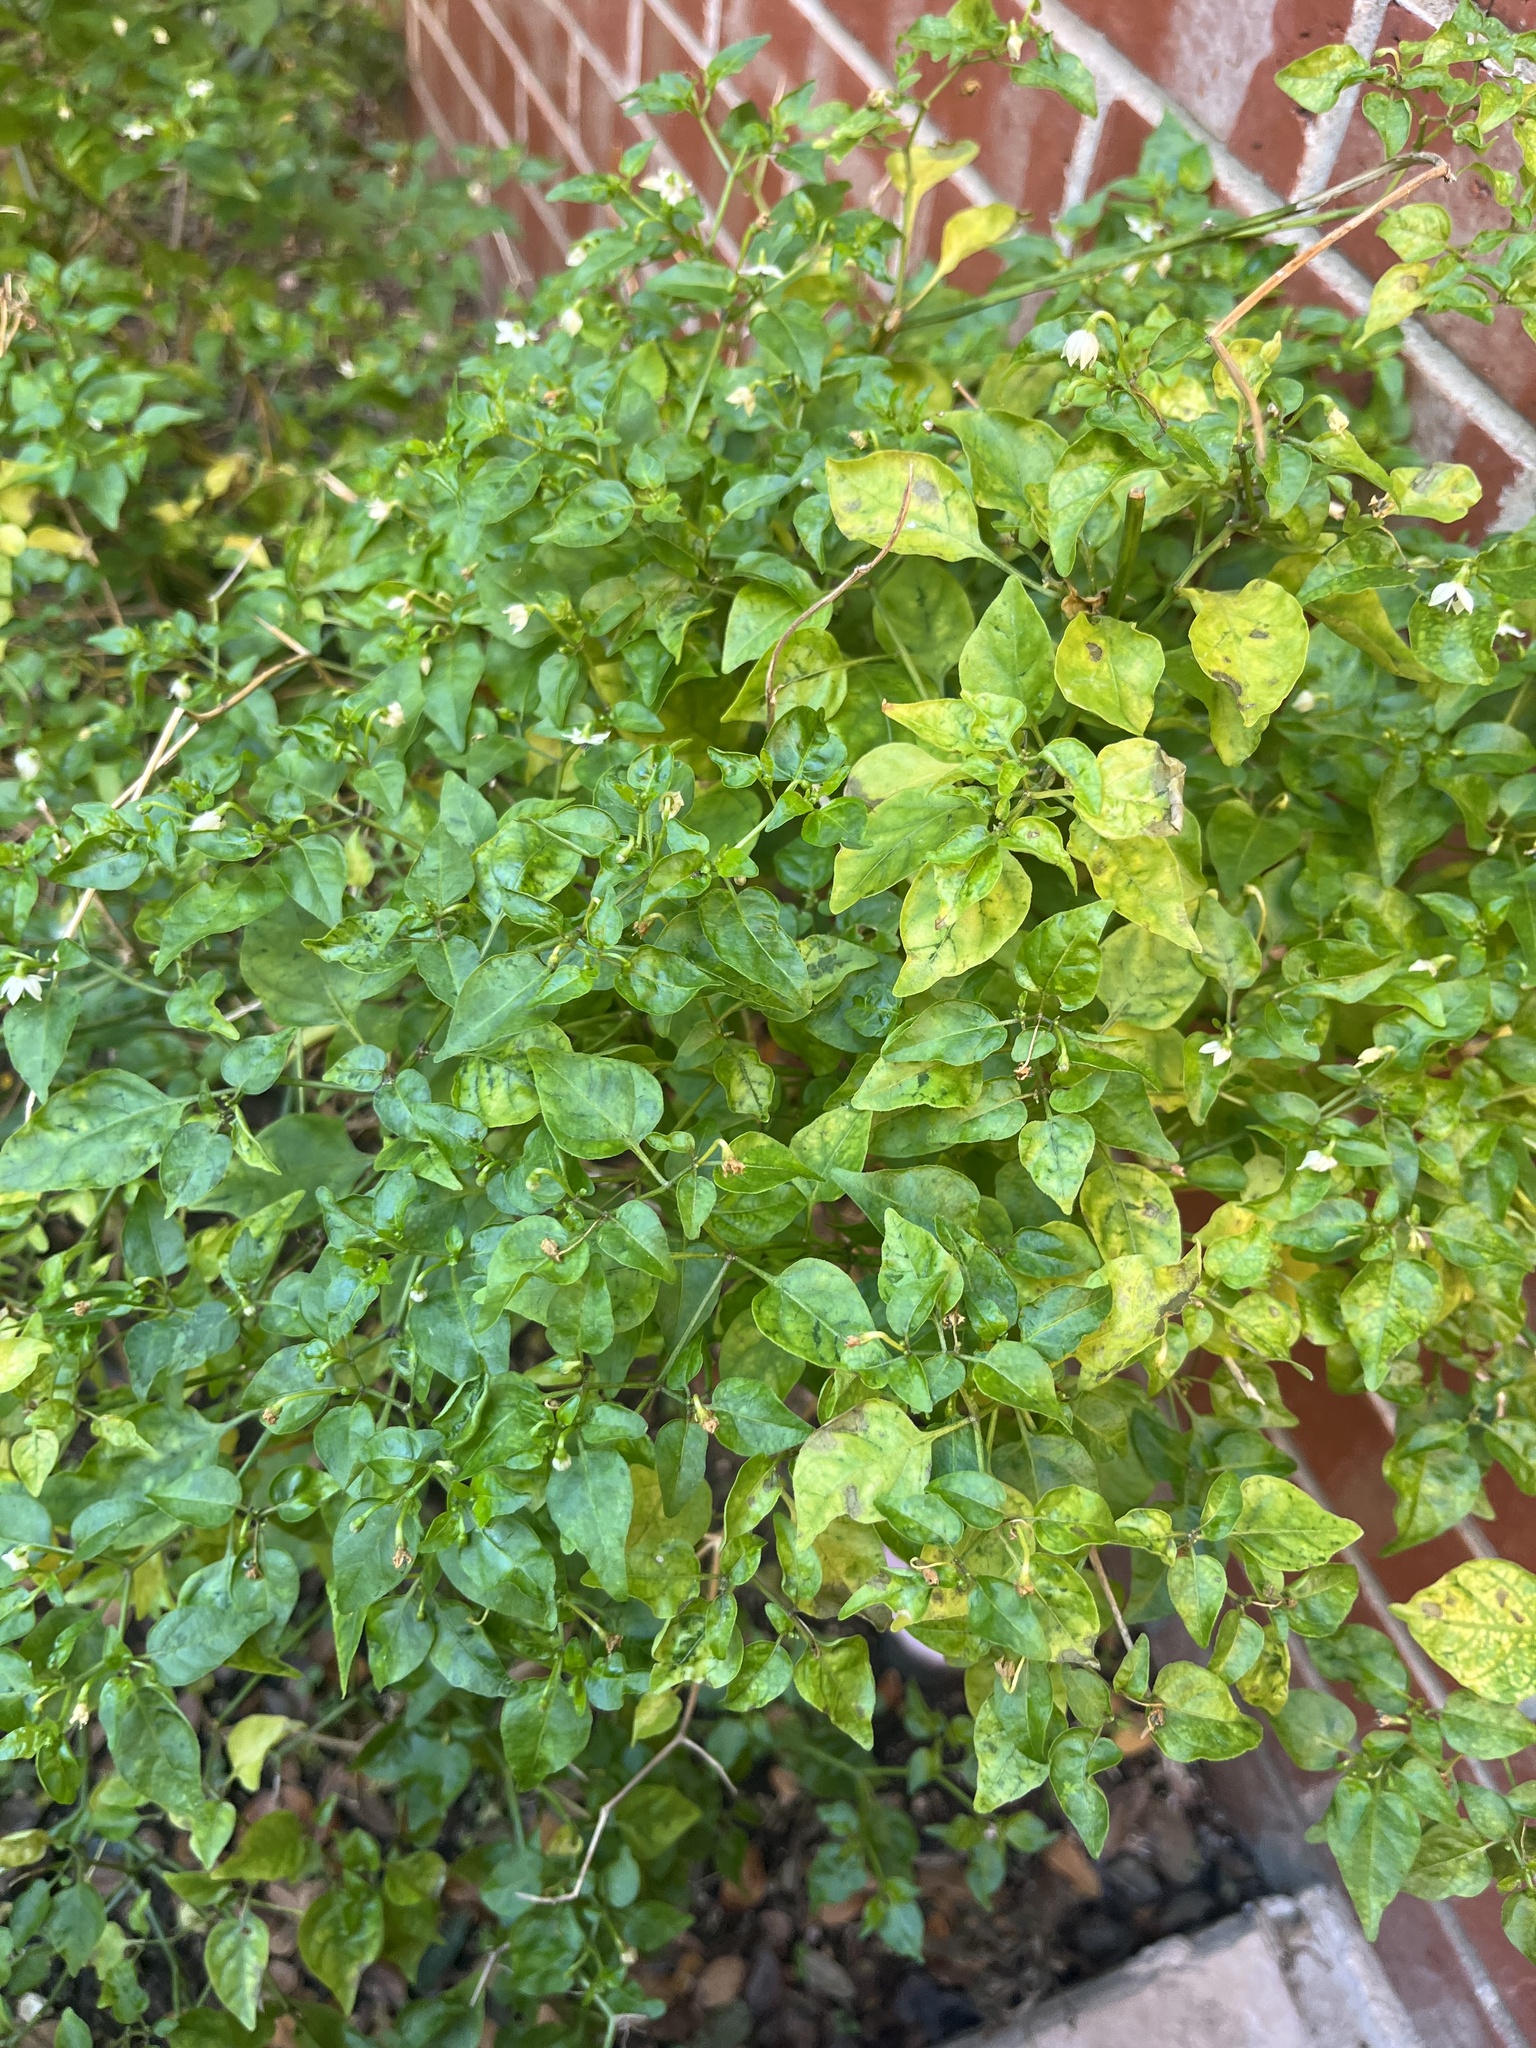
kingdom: Plantae
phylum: Tracheophyta
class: Magnoliopsida
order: Solanales
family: Solanaceae
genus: Capsicum
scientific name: Capsicum annuum
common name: Sweet pepper
